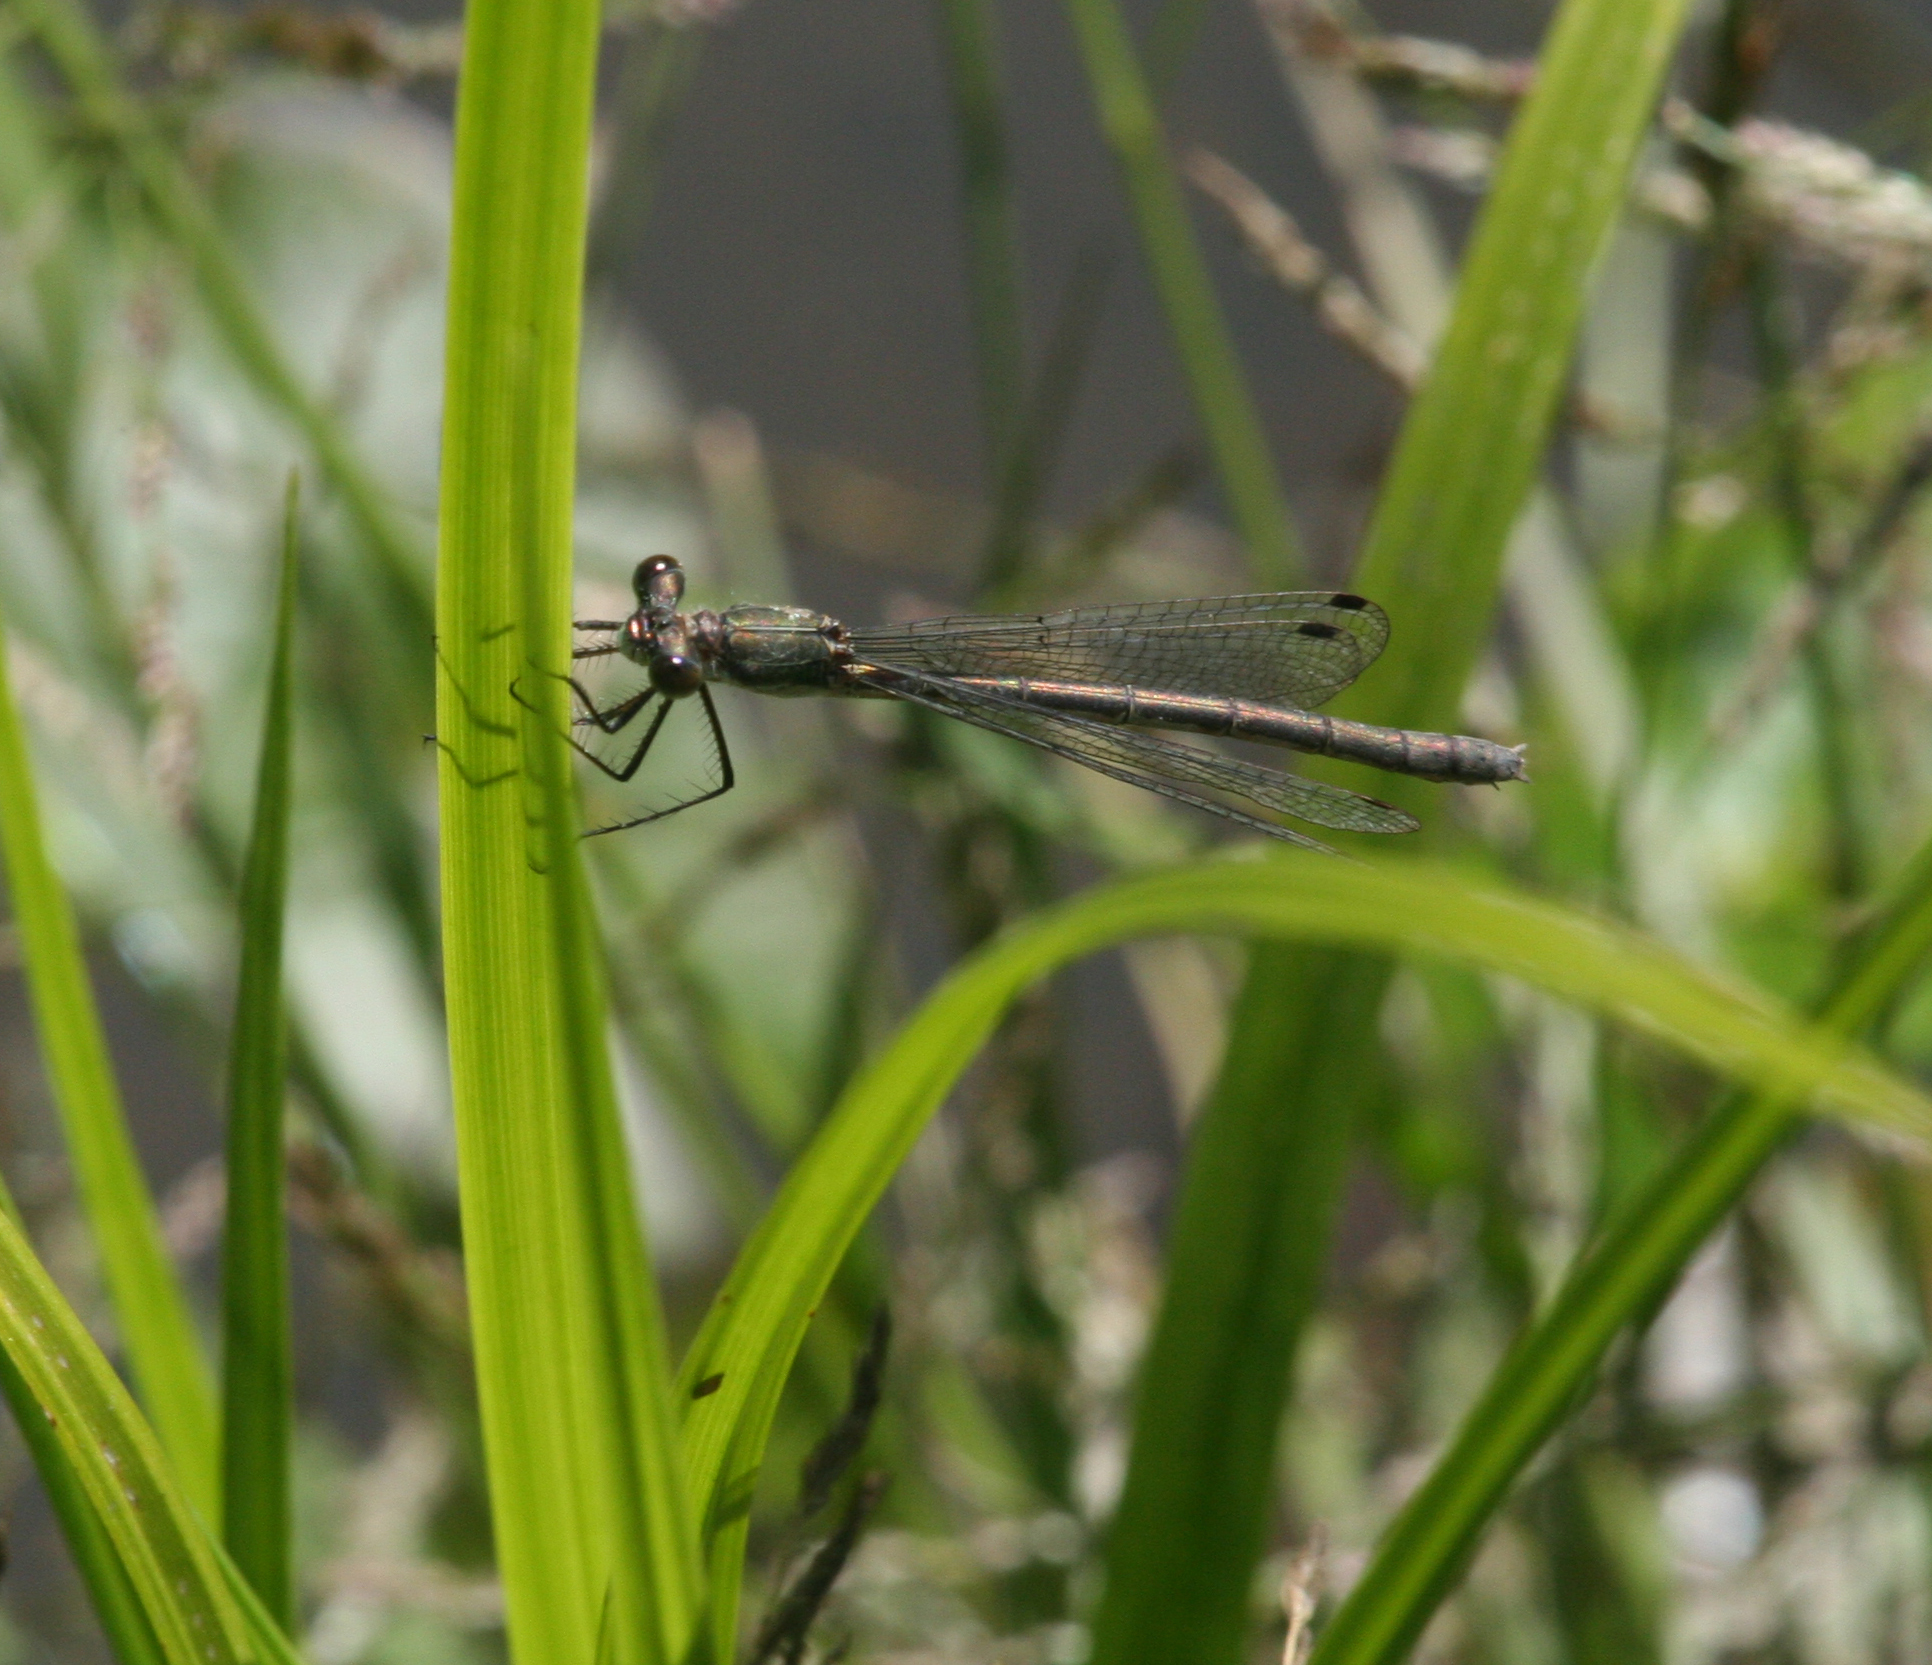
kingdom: Animalia
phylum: Arthropoda
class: Insecta
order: Odonata
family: Lestidae
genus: Lestes
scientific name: Lestes sponsa
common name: Common spreadwing
